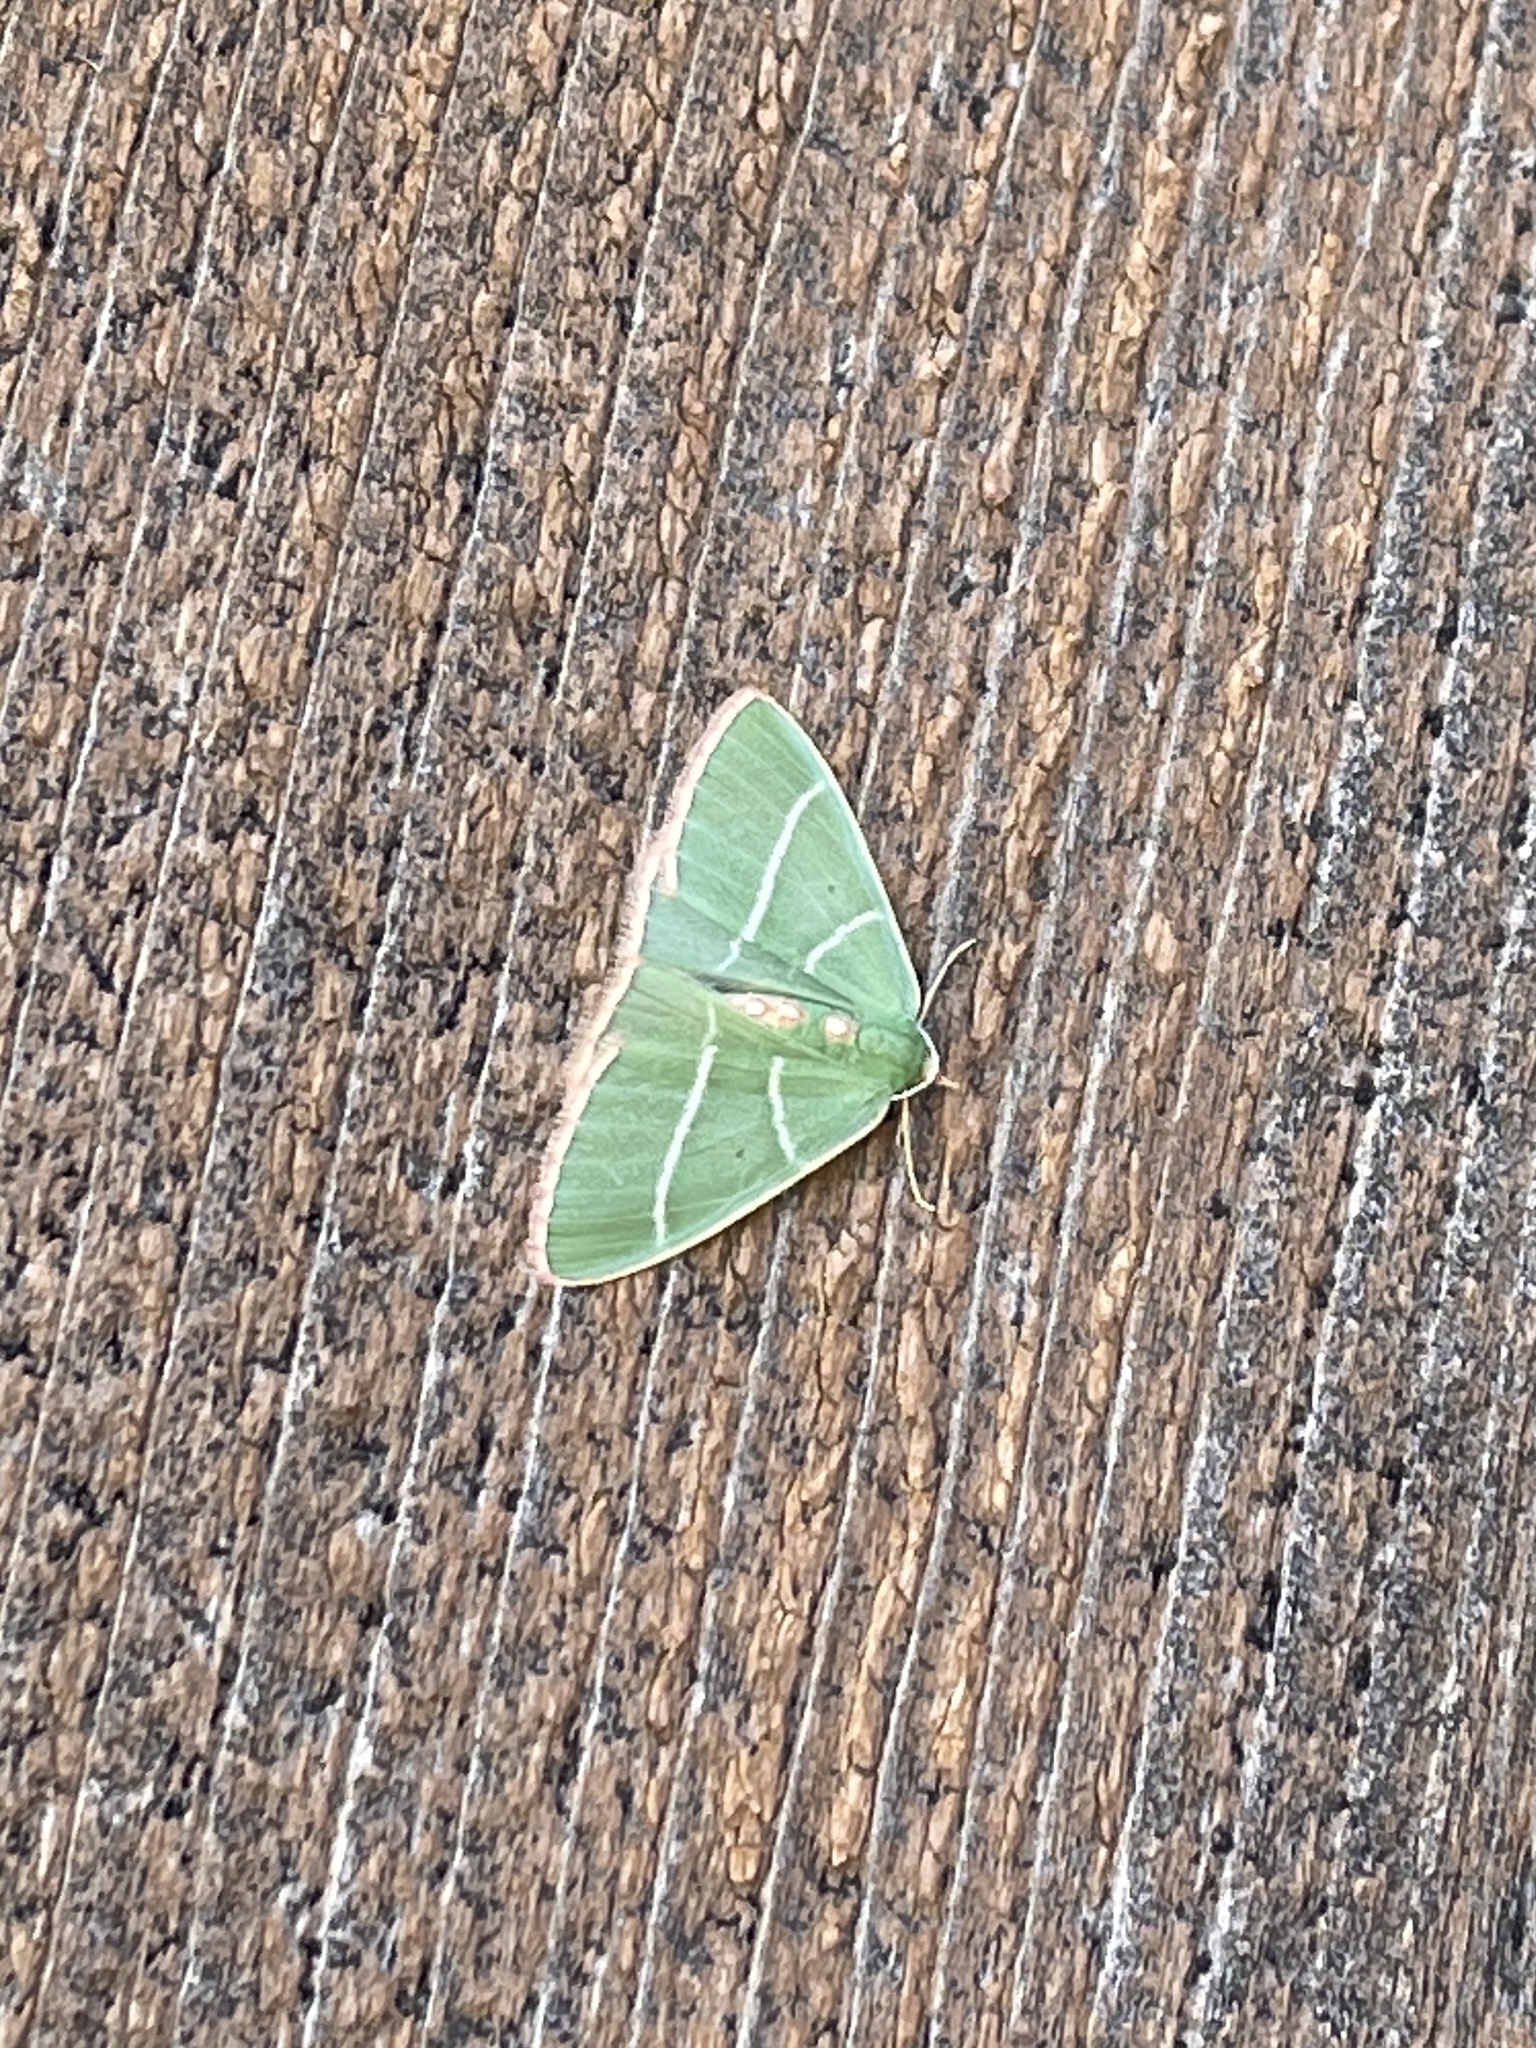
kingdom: Animalia
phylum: Arthropoda
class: Insecta
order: Lepidoptera
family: Geometridae
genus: Nemoria
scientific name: Nemoria obliqua
